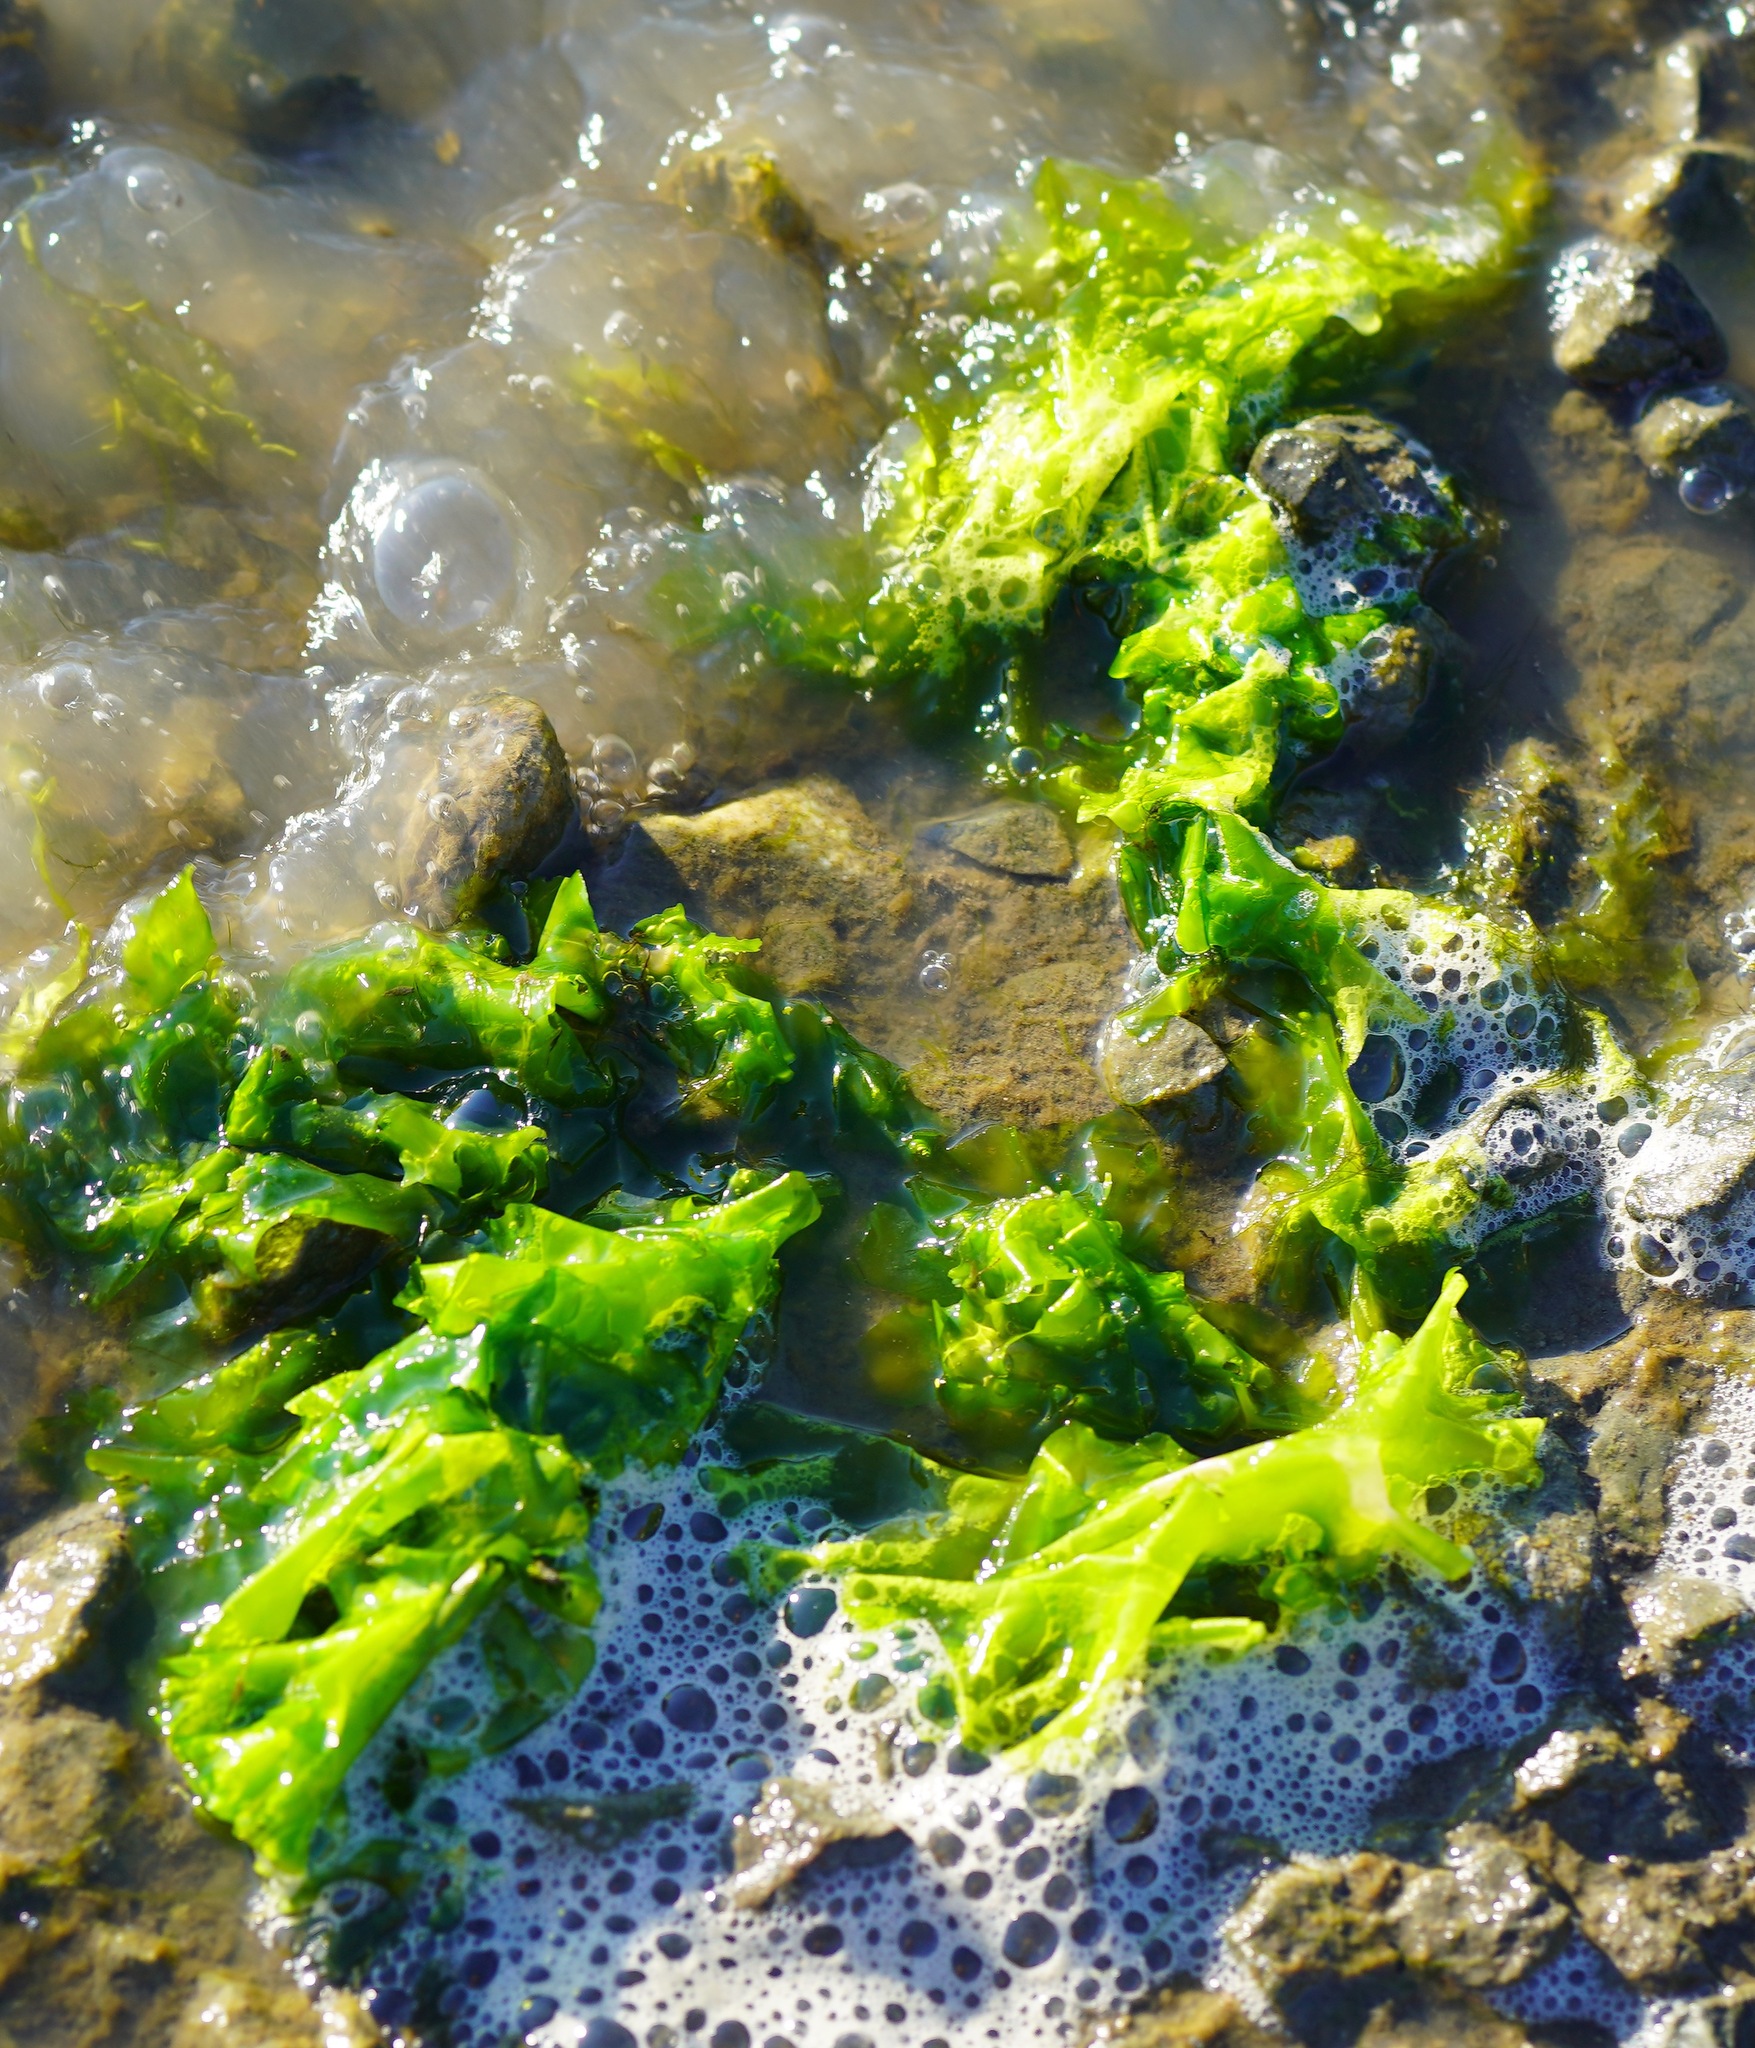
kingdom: Plantae
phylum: Chlorophyta
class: Ulvophyceae
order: Ulvales
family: Ulvaceae
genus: Ulva
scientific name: Ulva lactuca
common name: Sea lettuce
